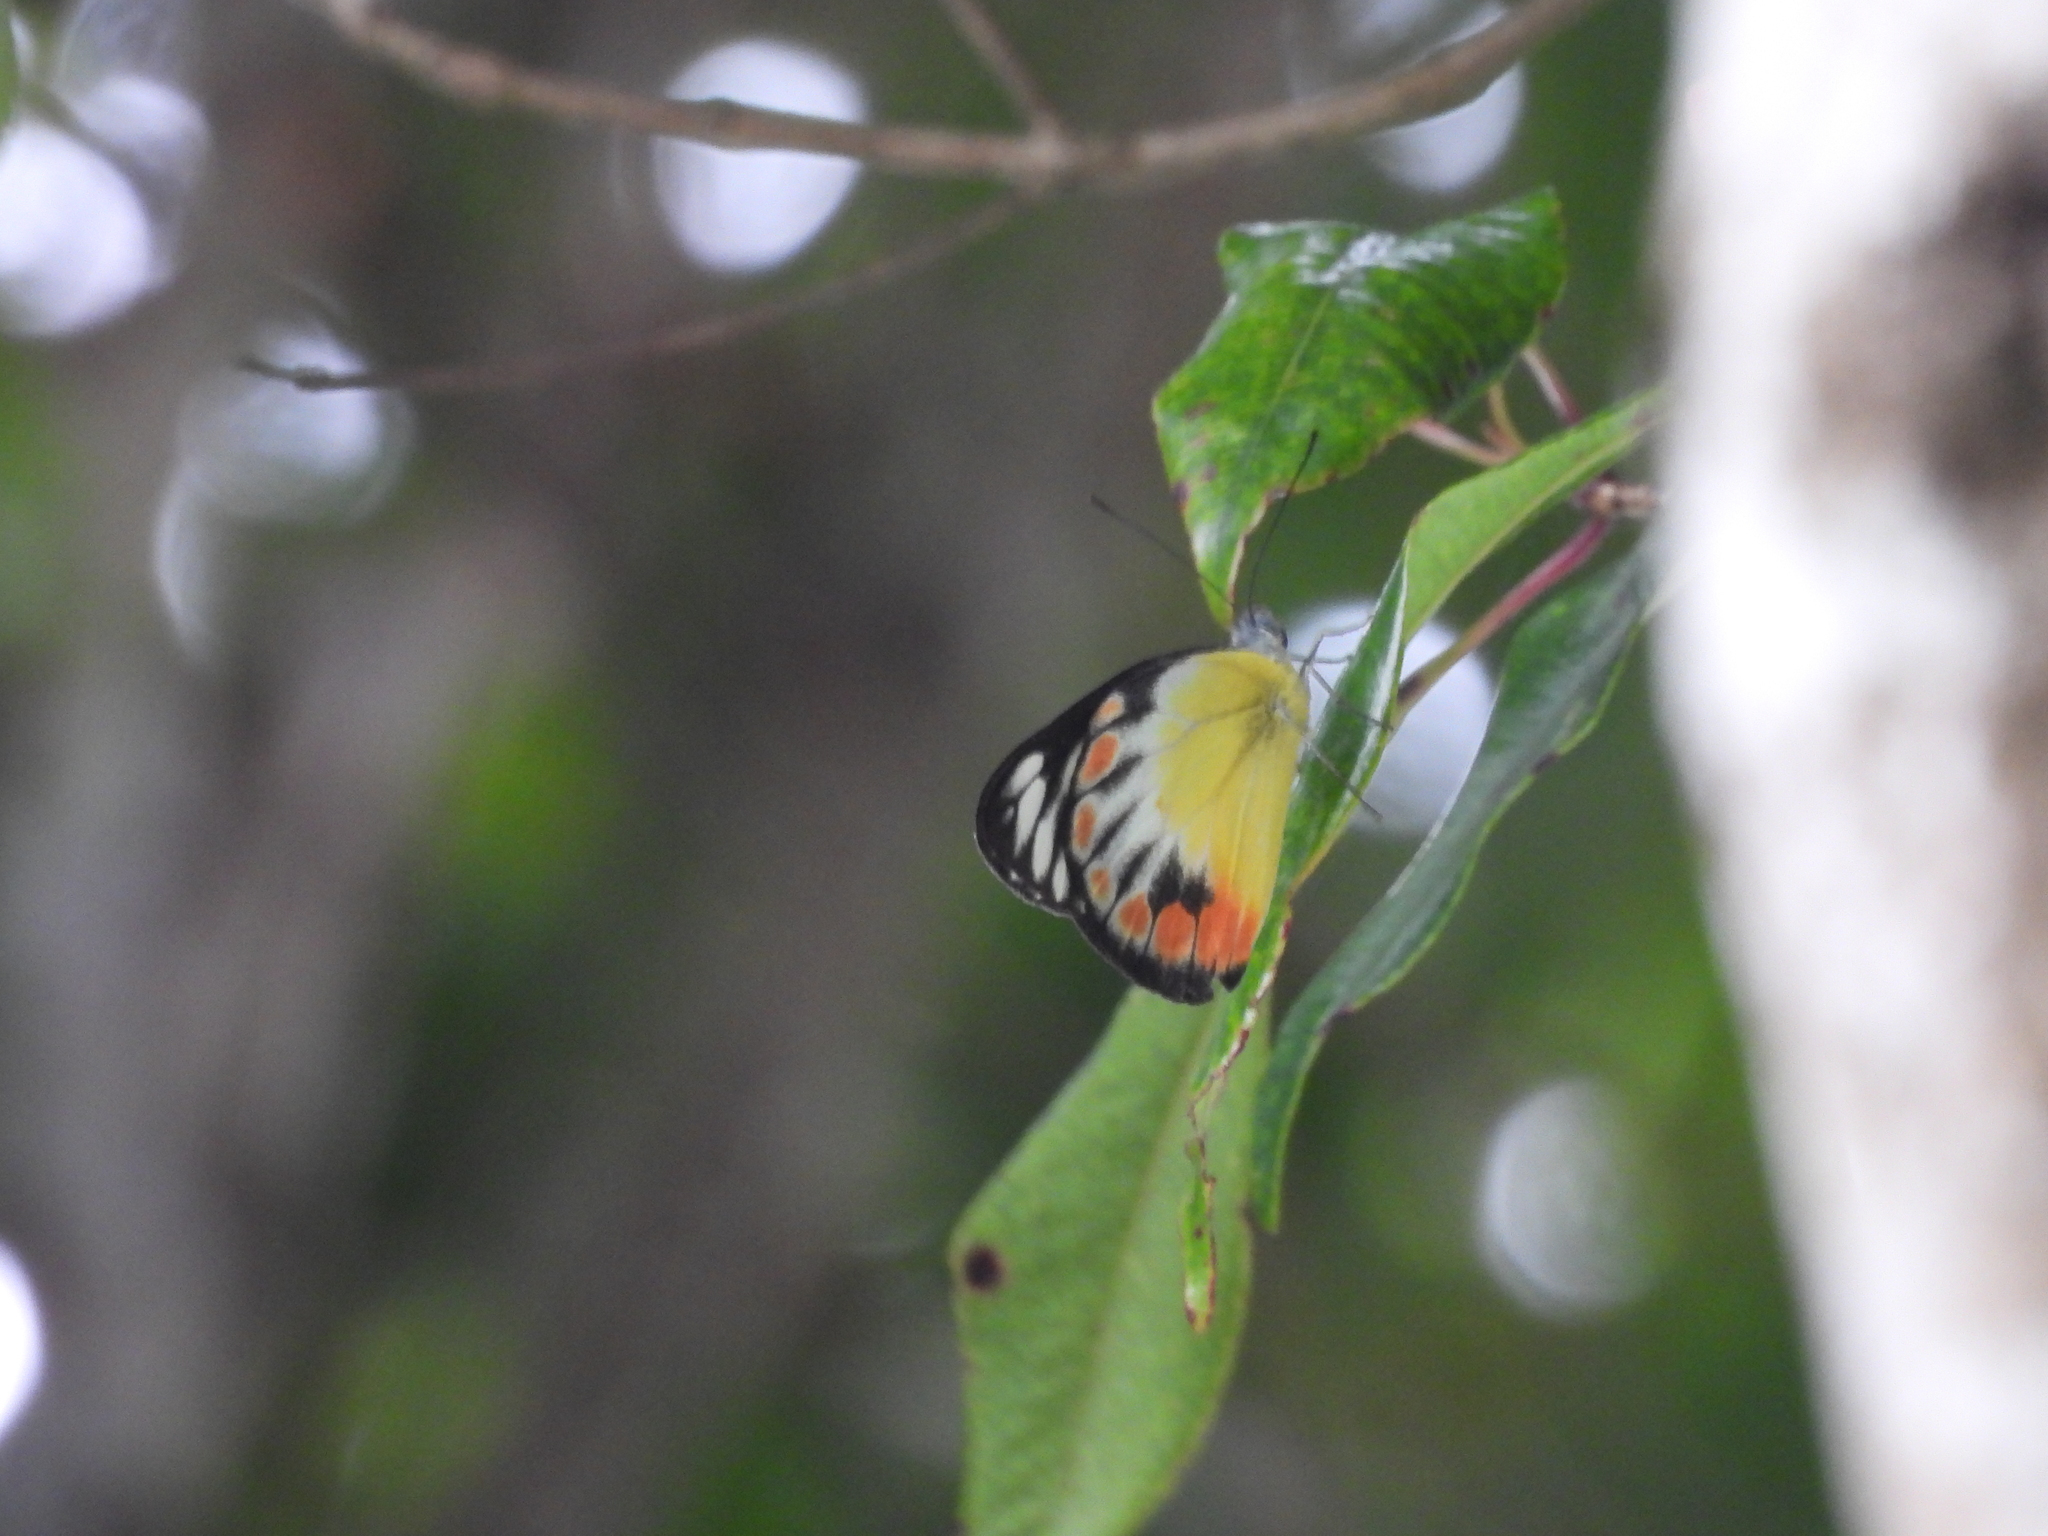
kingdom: Animalia
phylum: Arthropoda
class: Insecta
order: Lepidoptera
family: Pieridae
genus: Delias
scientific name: Delias periboea
